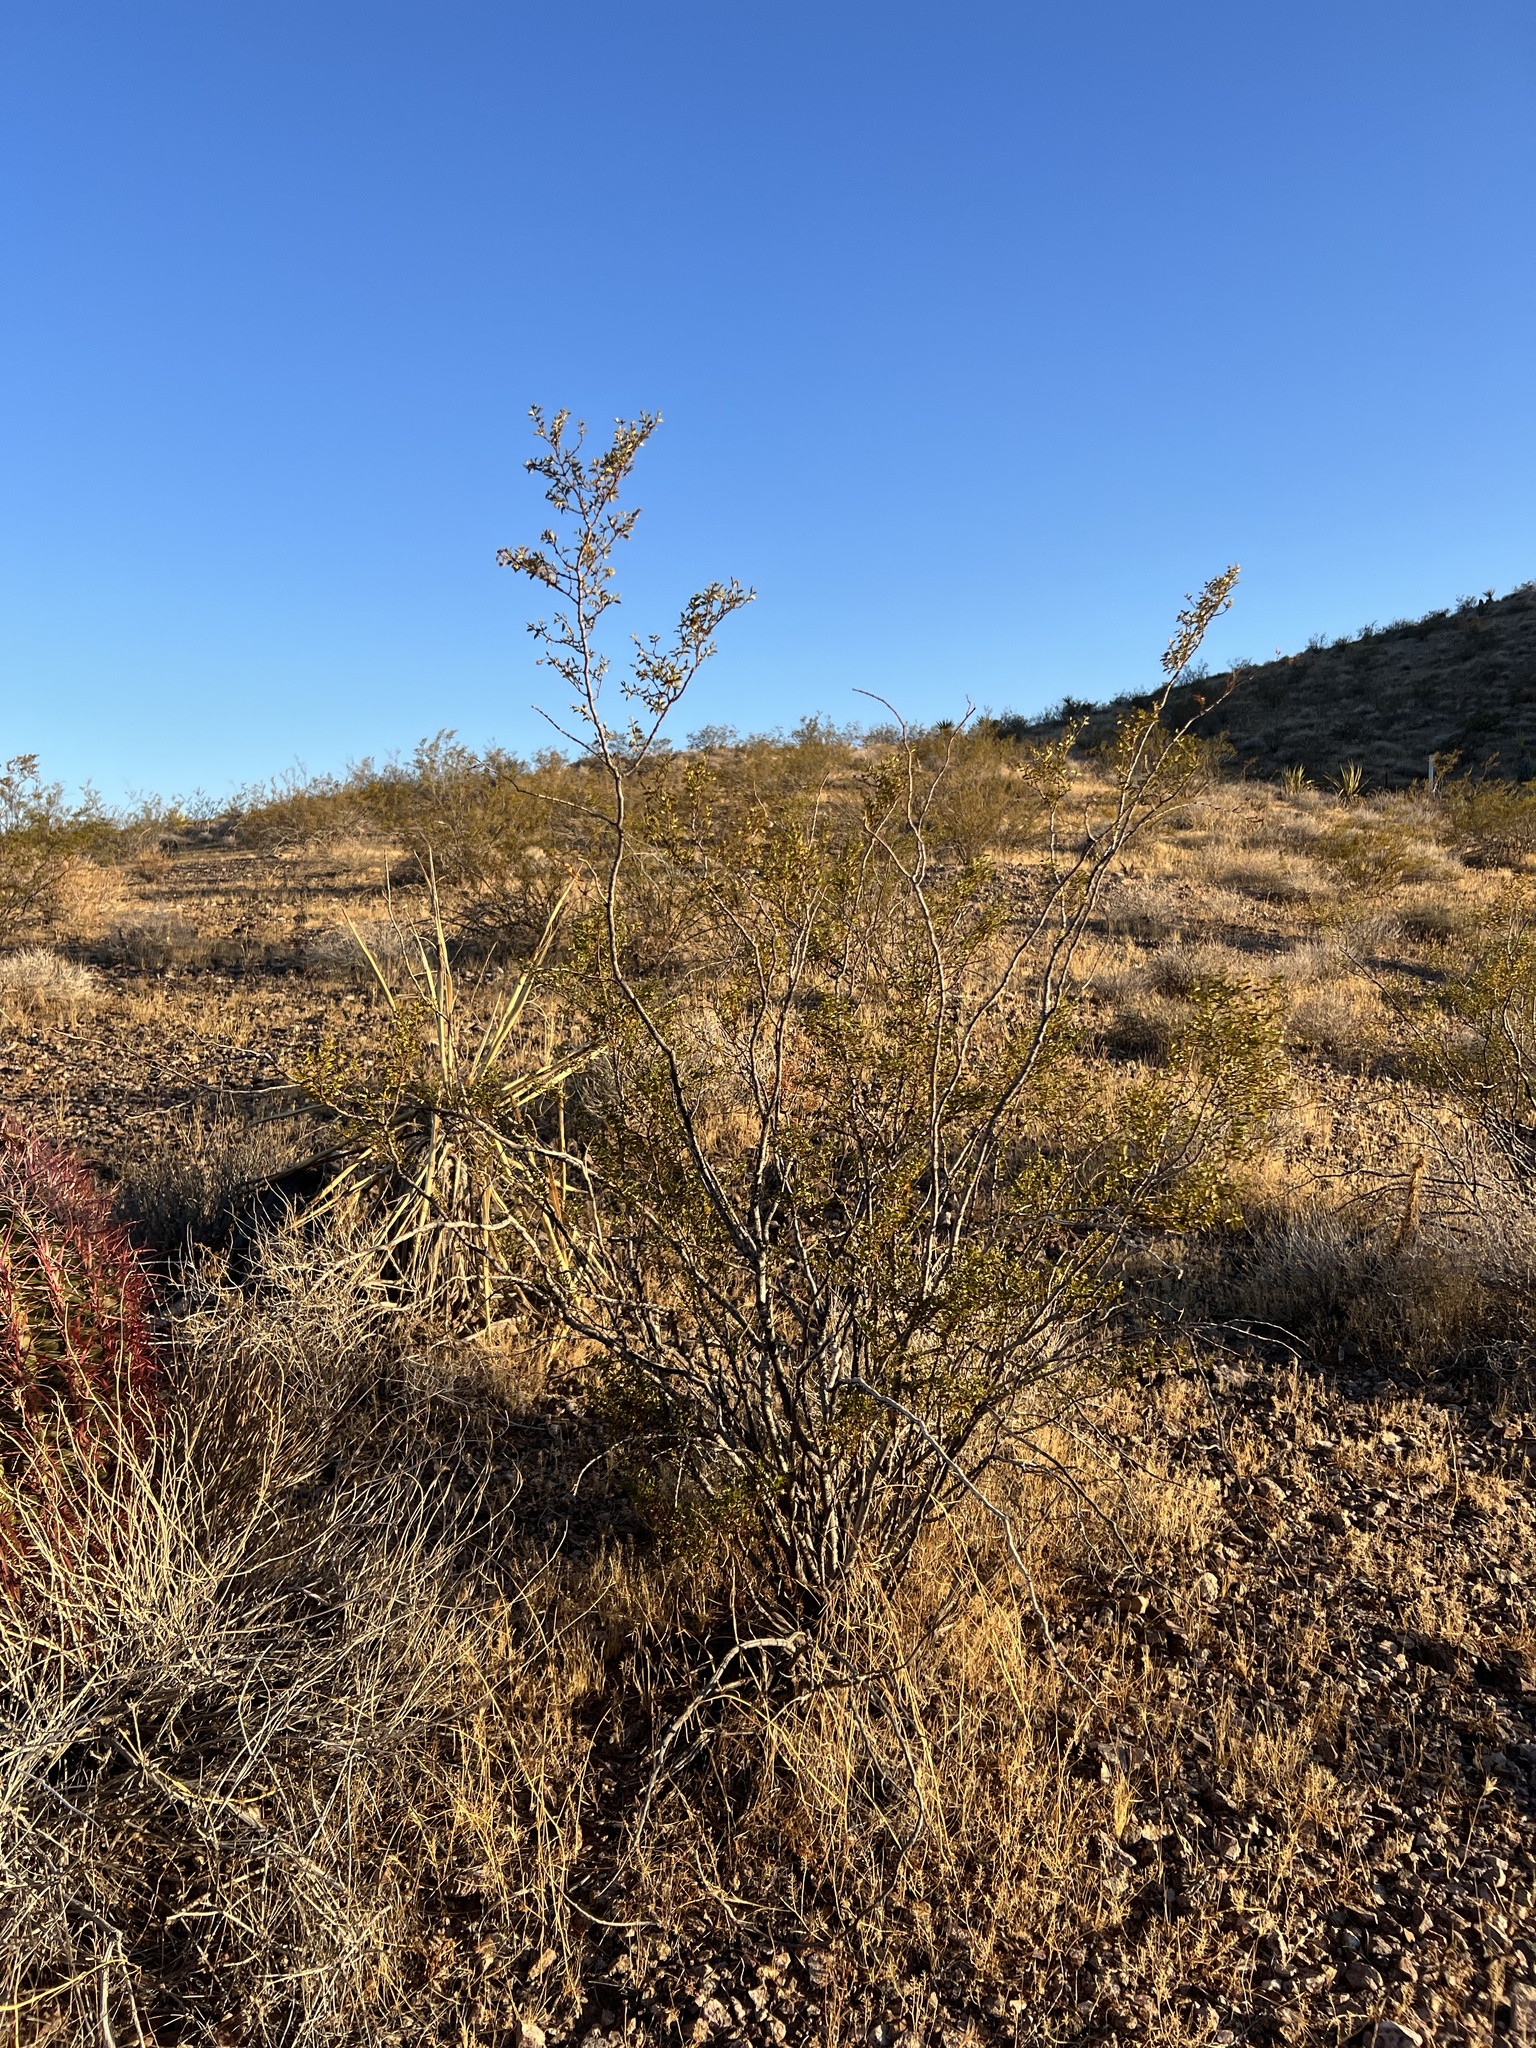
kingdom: Plantae
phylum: Tracheophyta
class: Magnoliopsida
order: Zygophyllales
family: Zygophyllaceae
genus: Larrea
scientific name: Larrea tridentata
